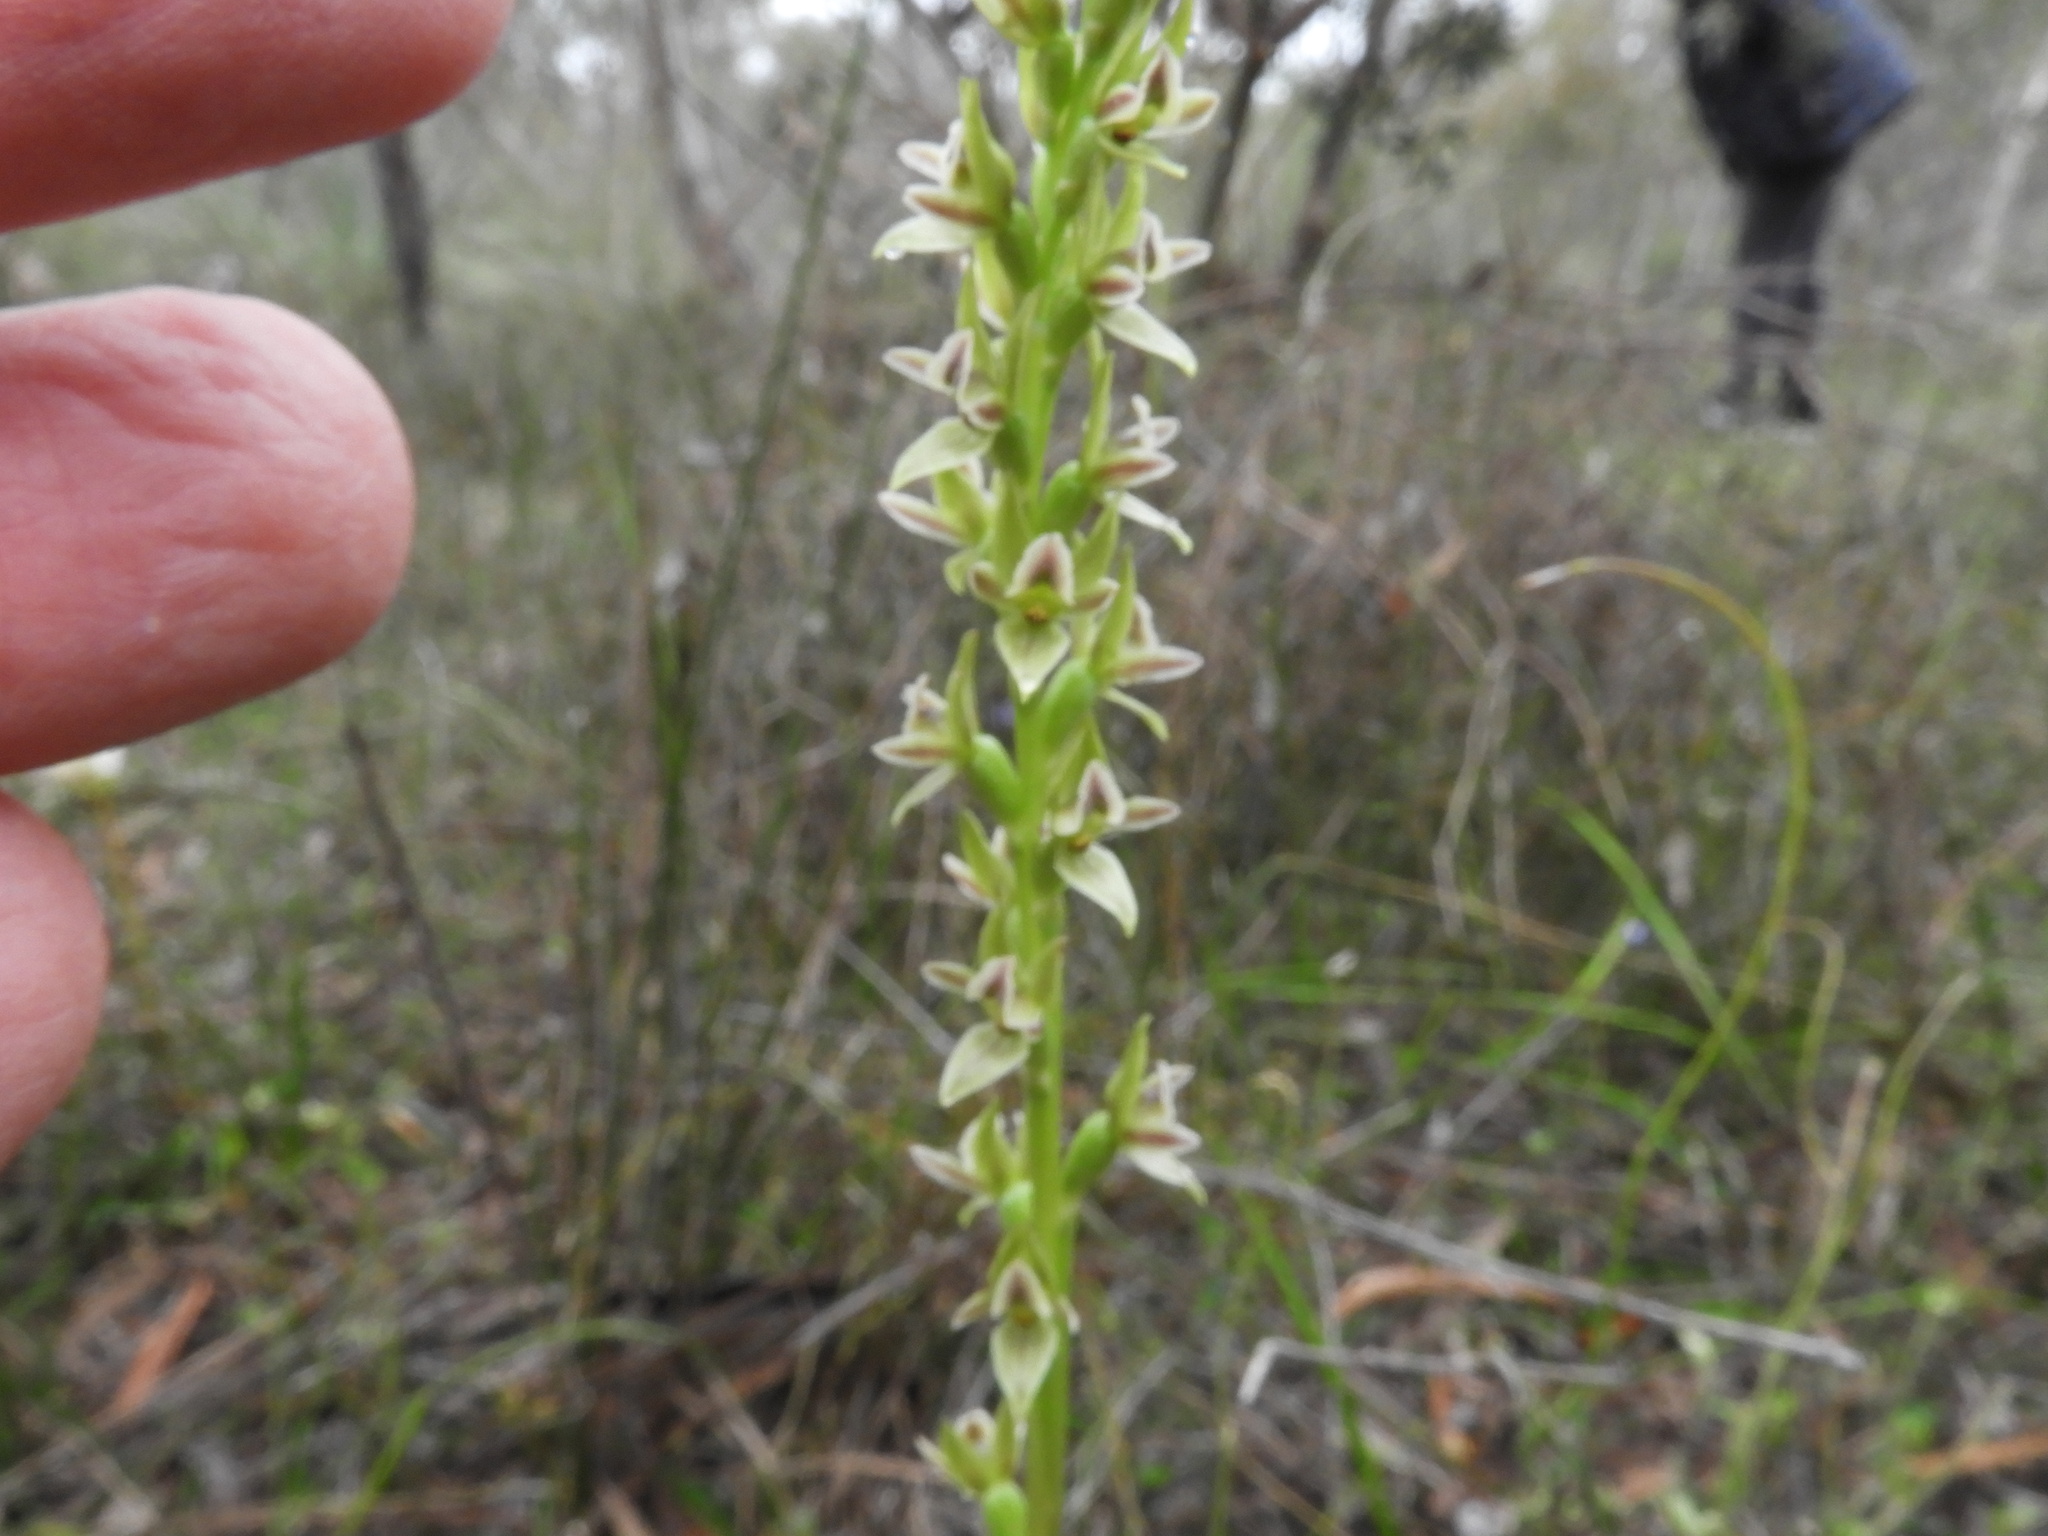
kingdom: Plantae
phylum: Tracheophyta
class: Liliopsida
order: Asparagales
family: Orchidaceae
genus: Prasophyllum
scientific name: Prasophyllum spadiceum
